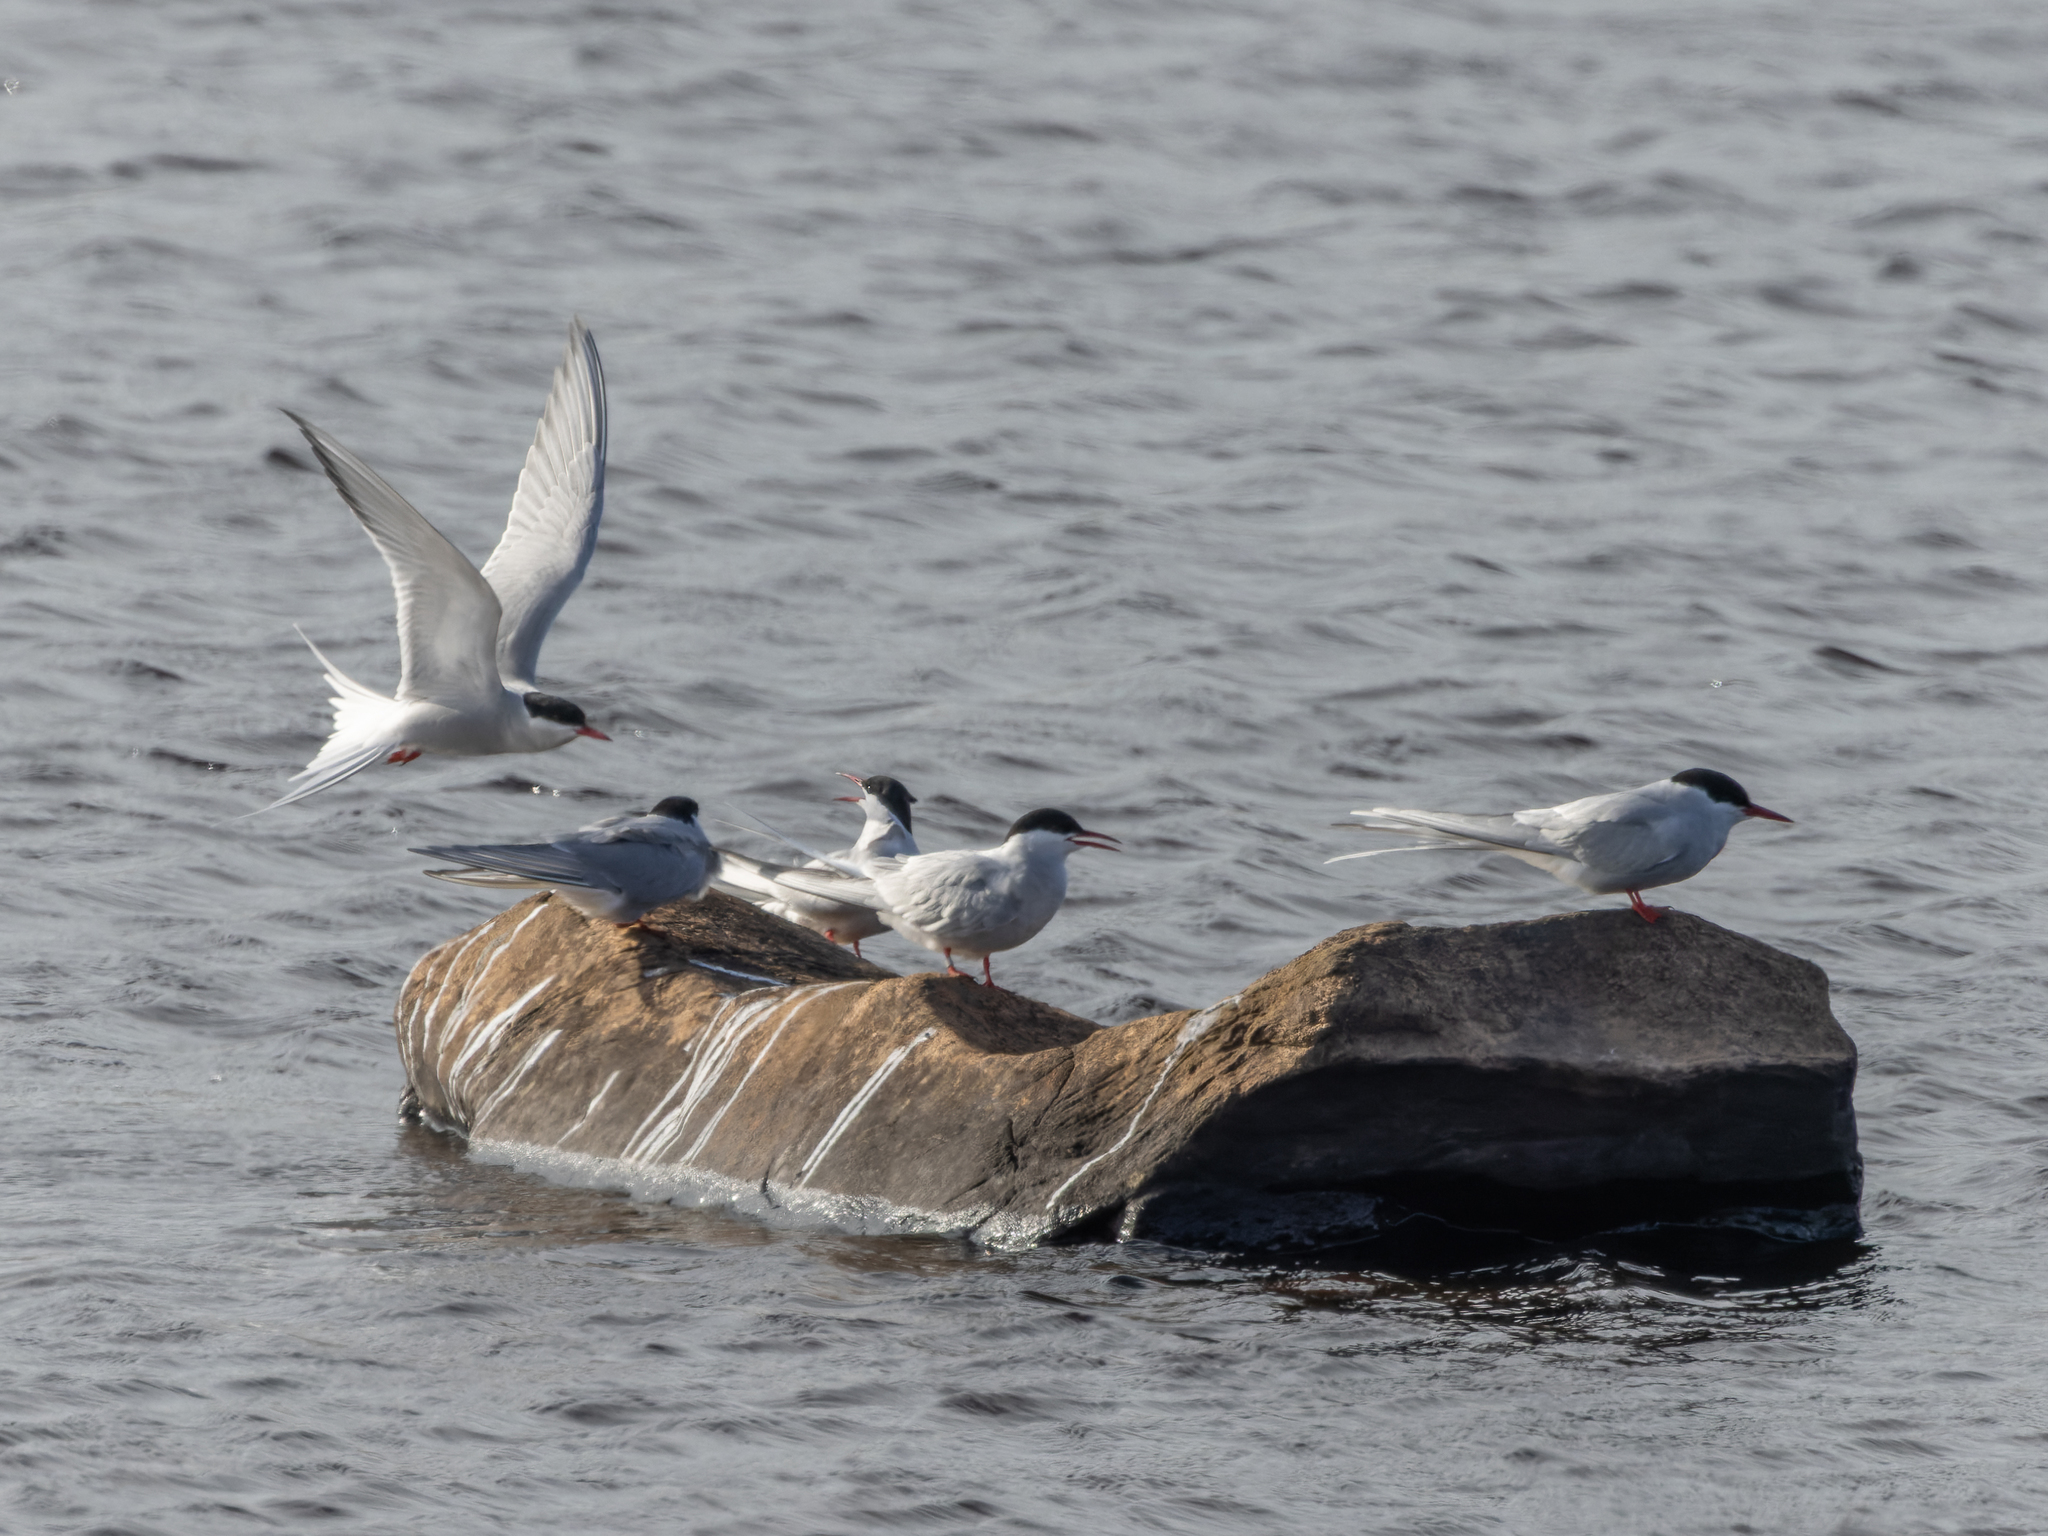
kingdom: Animalia
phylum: Chordata
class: Aves
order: Charadriiformes
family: Laridae
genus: Sterna
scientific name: Sterna paradisaea
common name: Arctic tern
